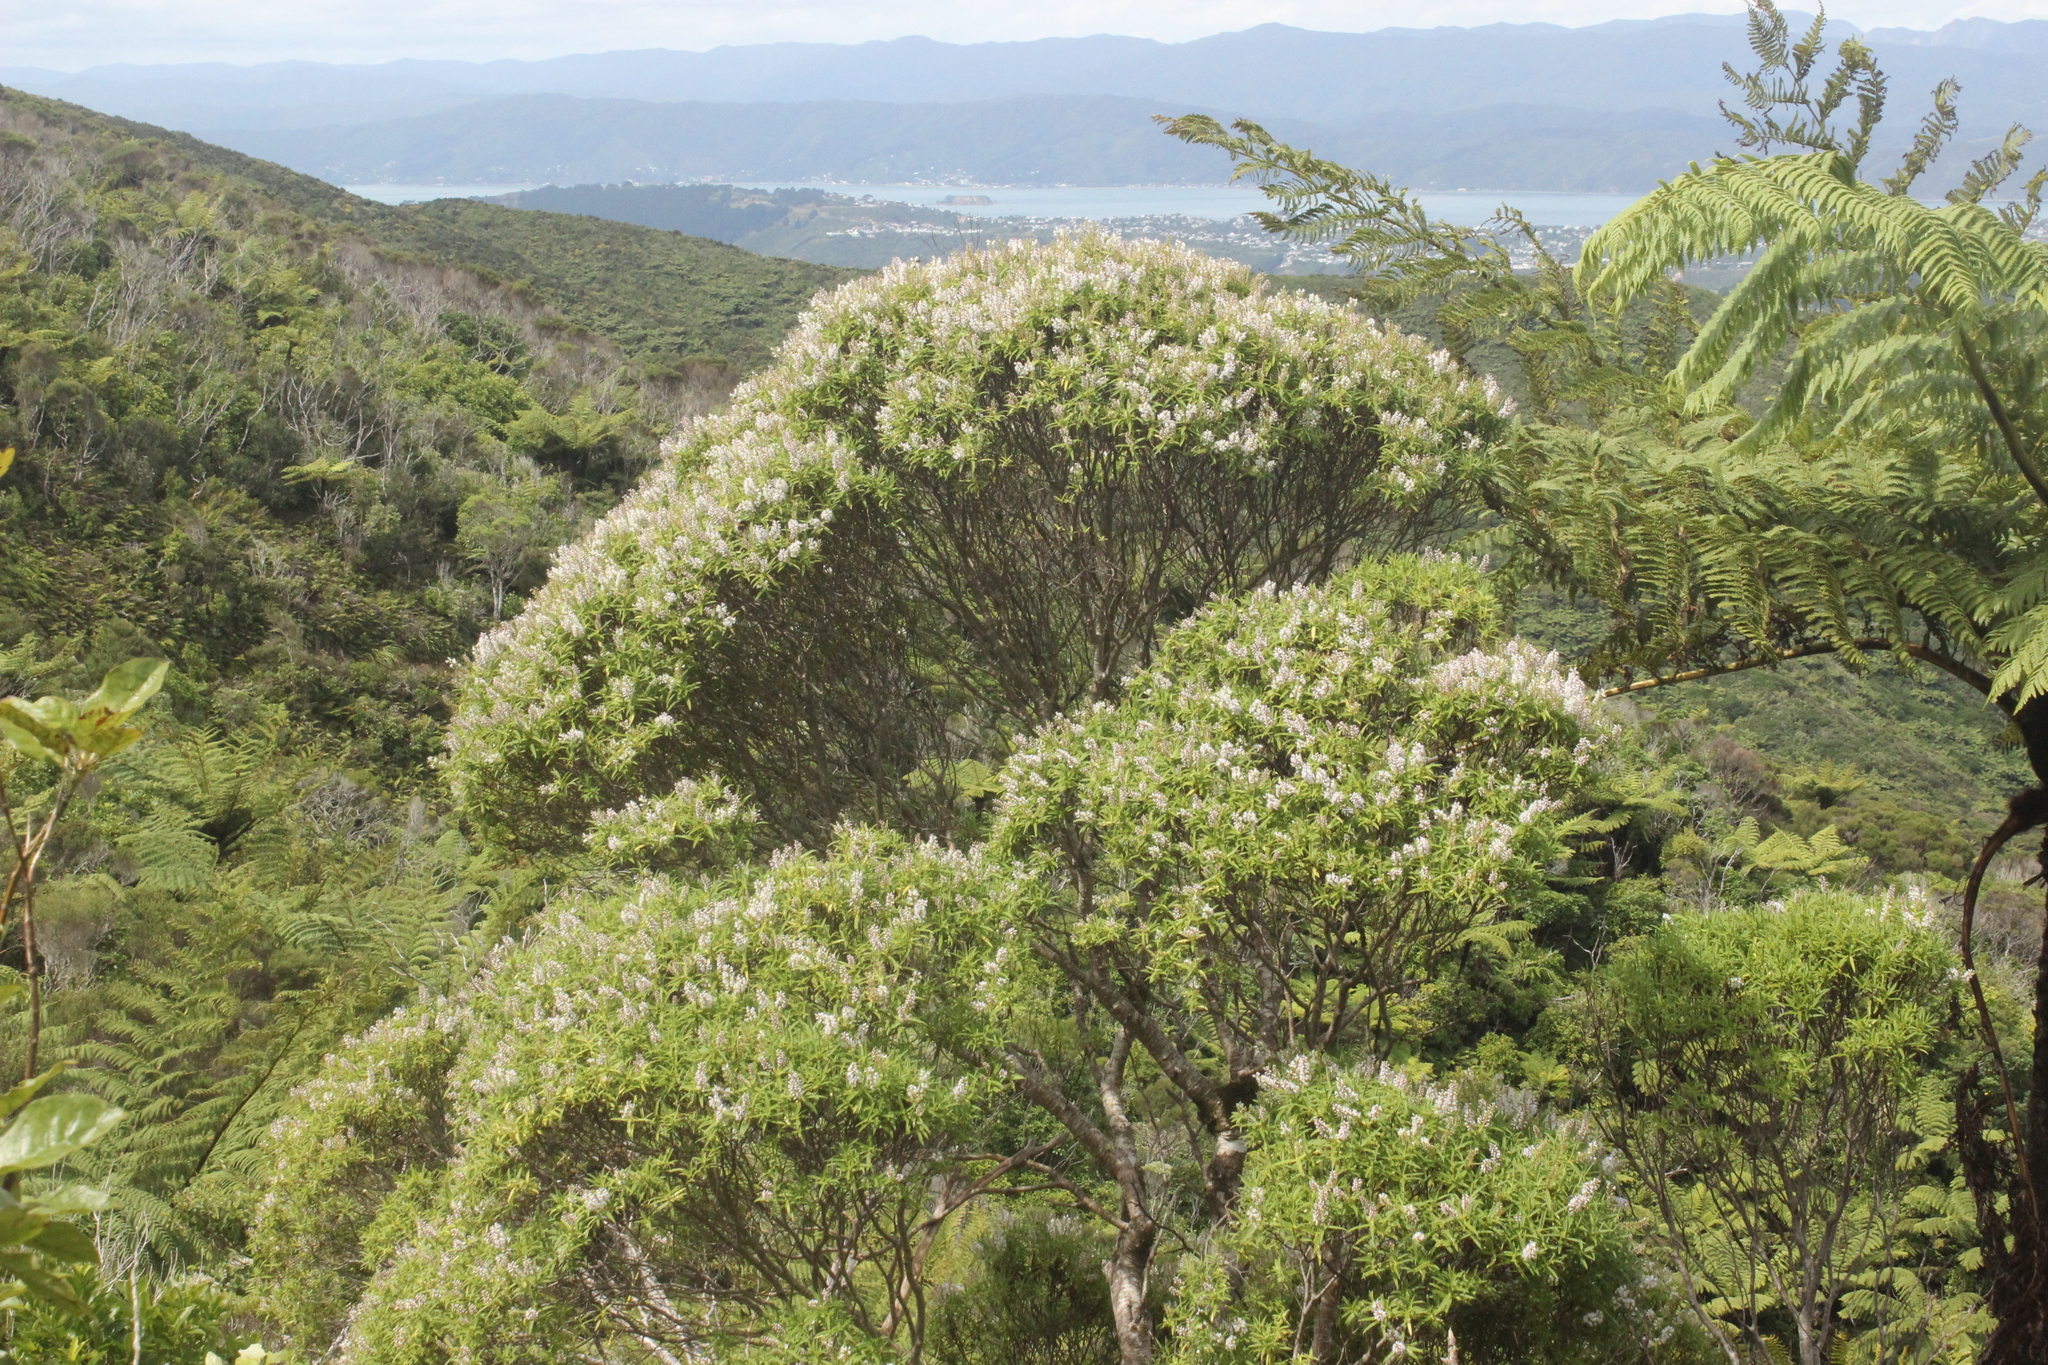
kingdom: Plantae
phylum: Tracheophyta
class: Magnoliopsida
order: Lamiales
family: Plantaginaceae
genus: Veronica
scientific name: Veronica parviflora
